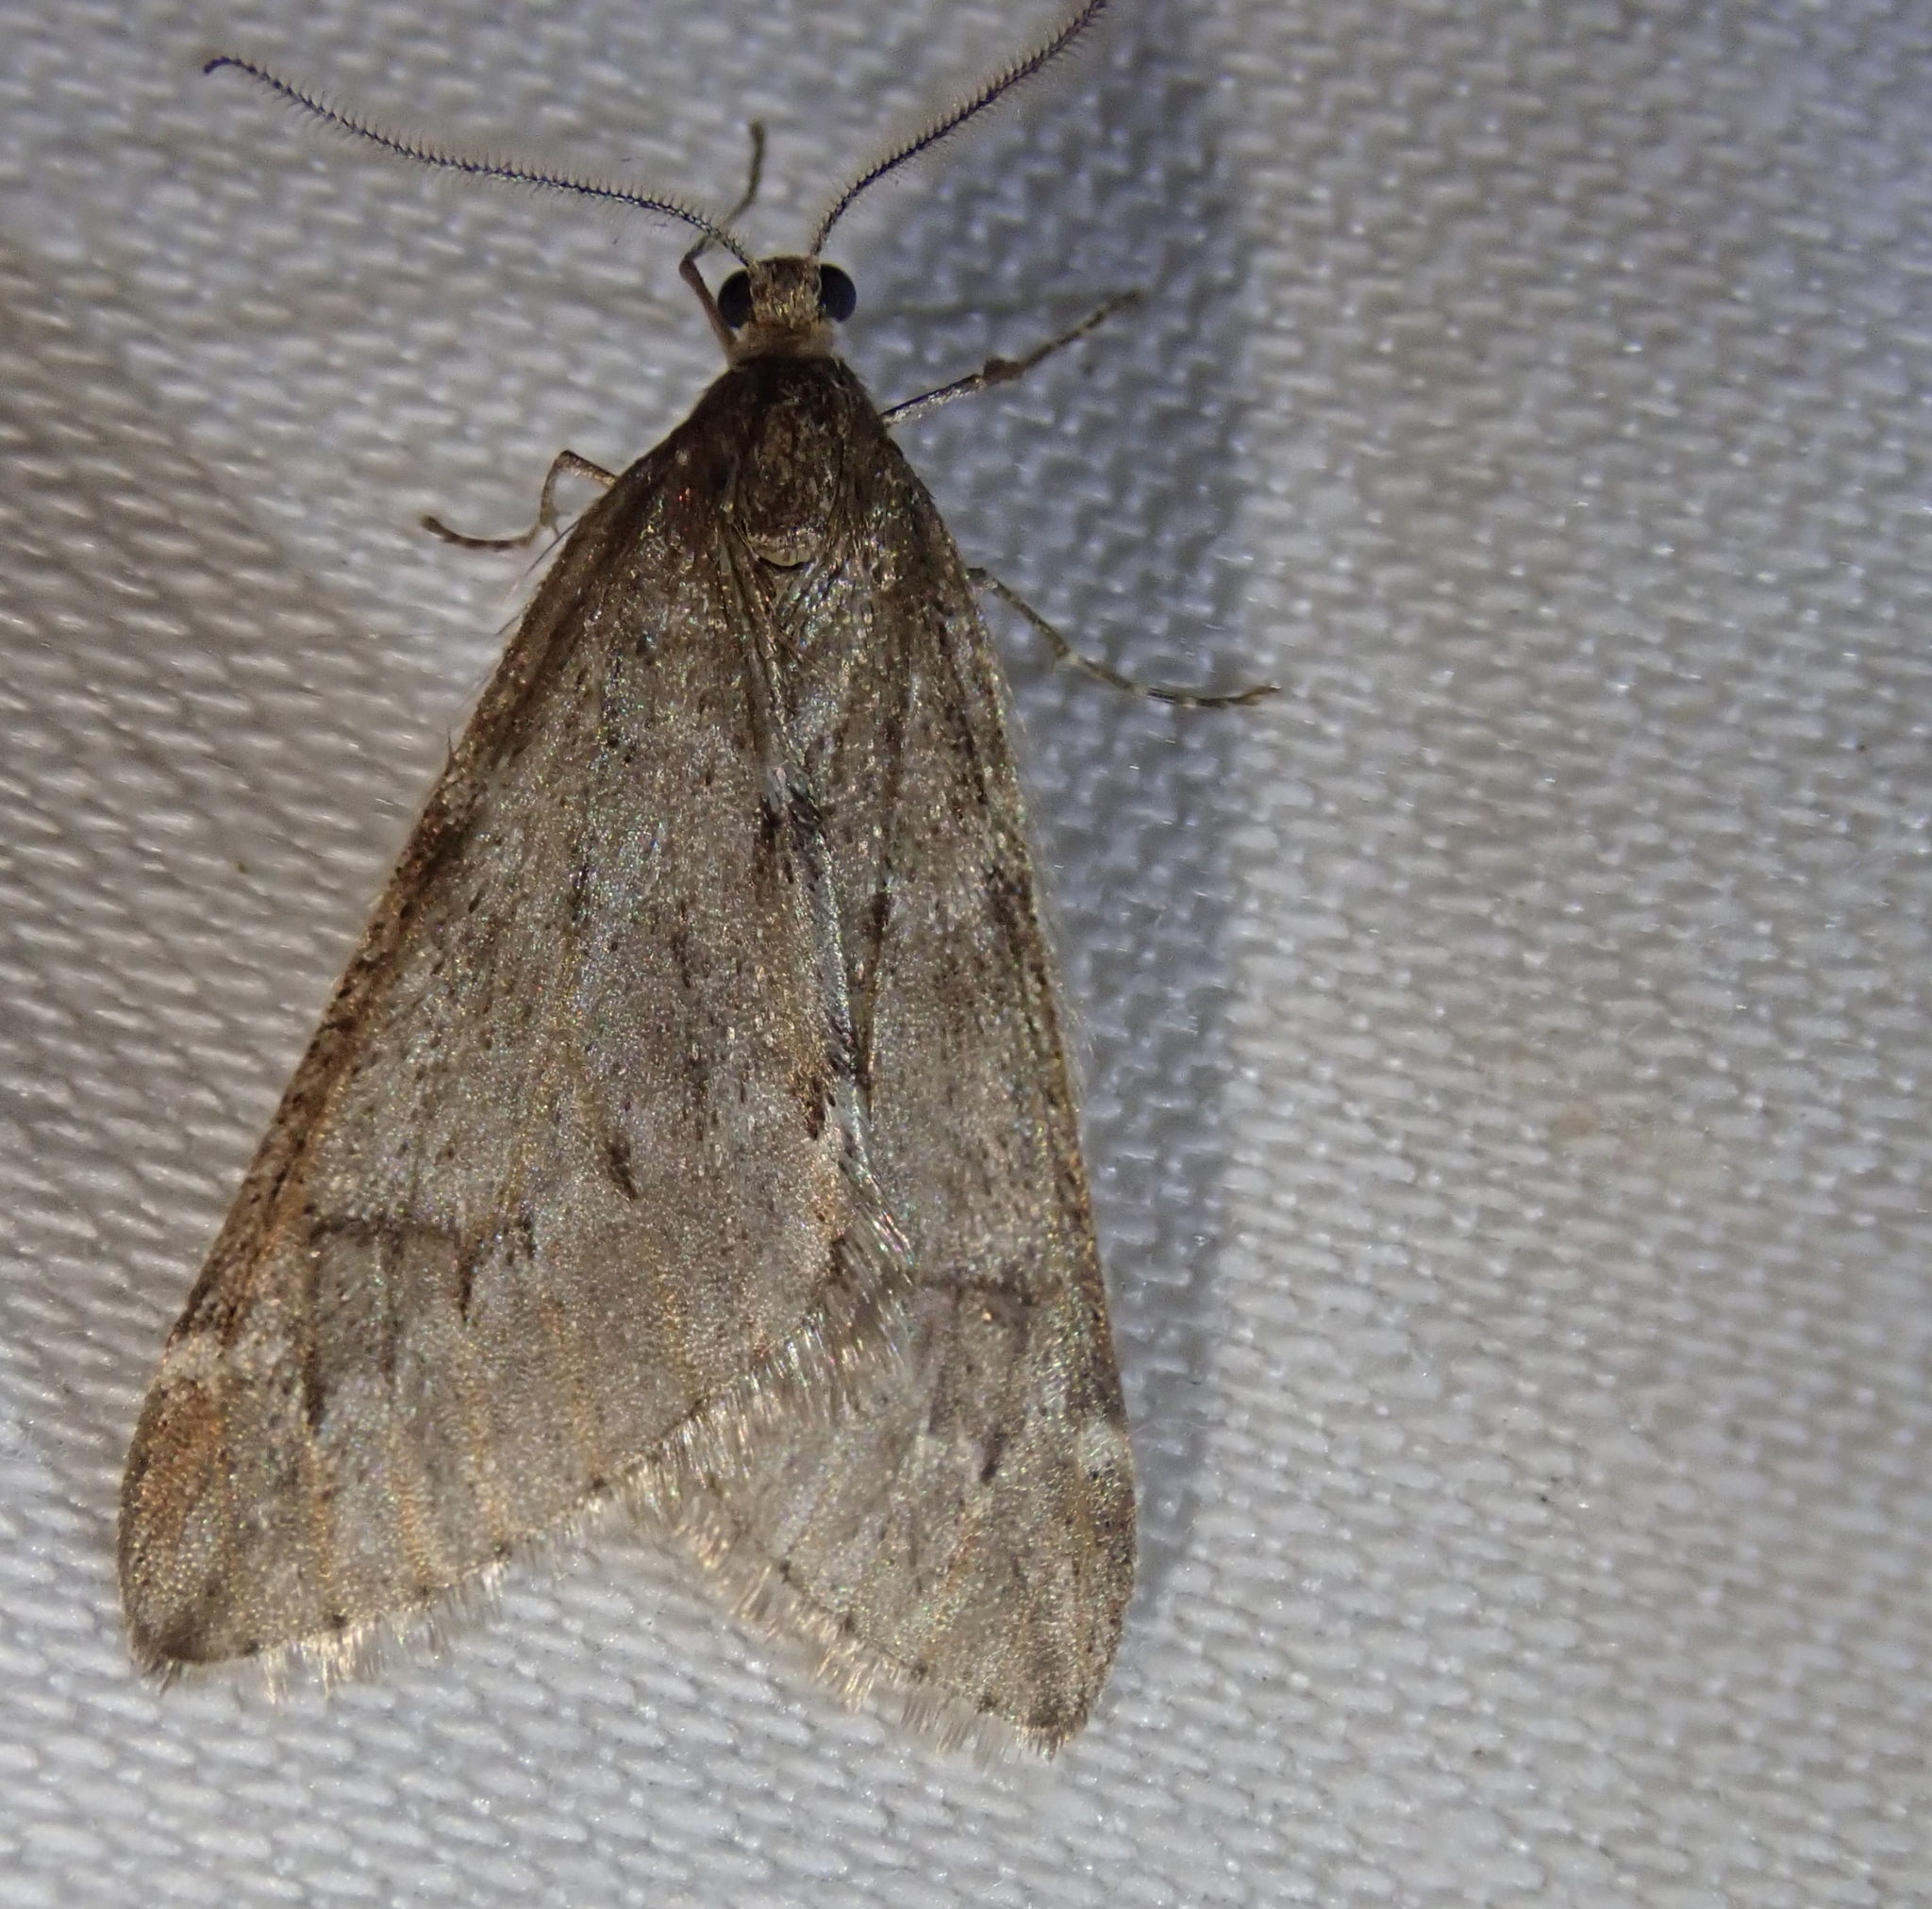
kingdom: Animalia
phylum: Arthropoda
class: Insecta
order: Lepidoptera
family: Geometridae
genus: Alsophila
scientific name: Alsophila aescularia
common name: March moth
